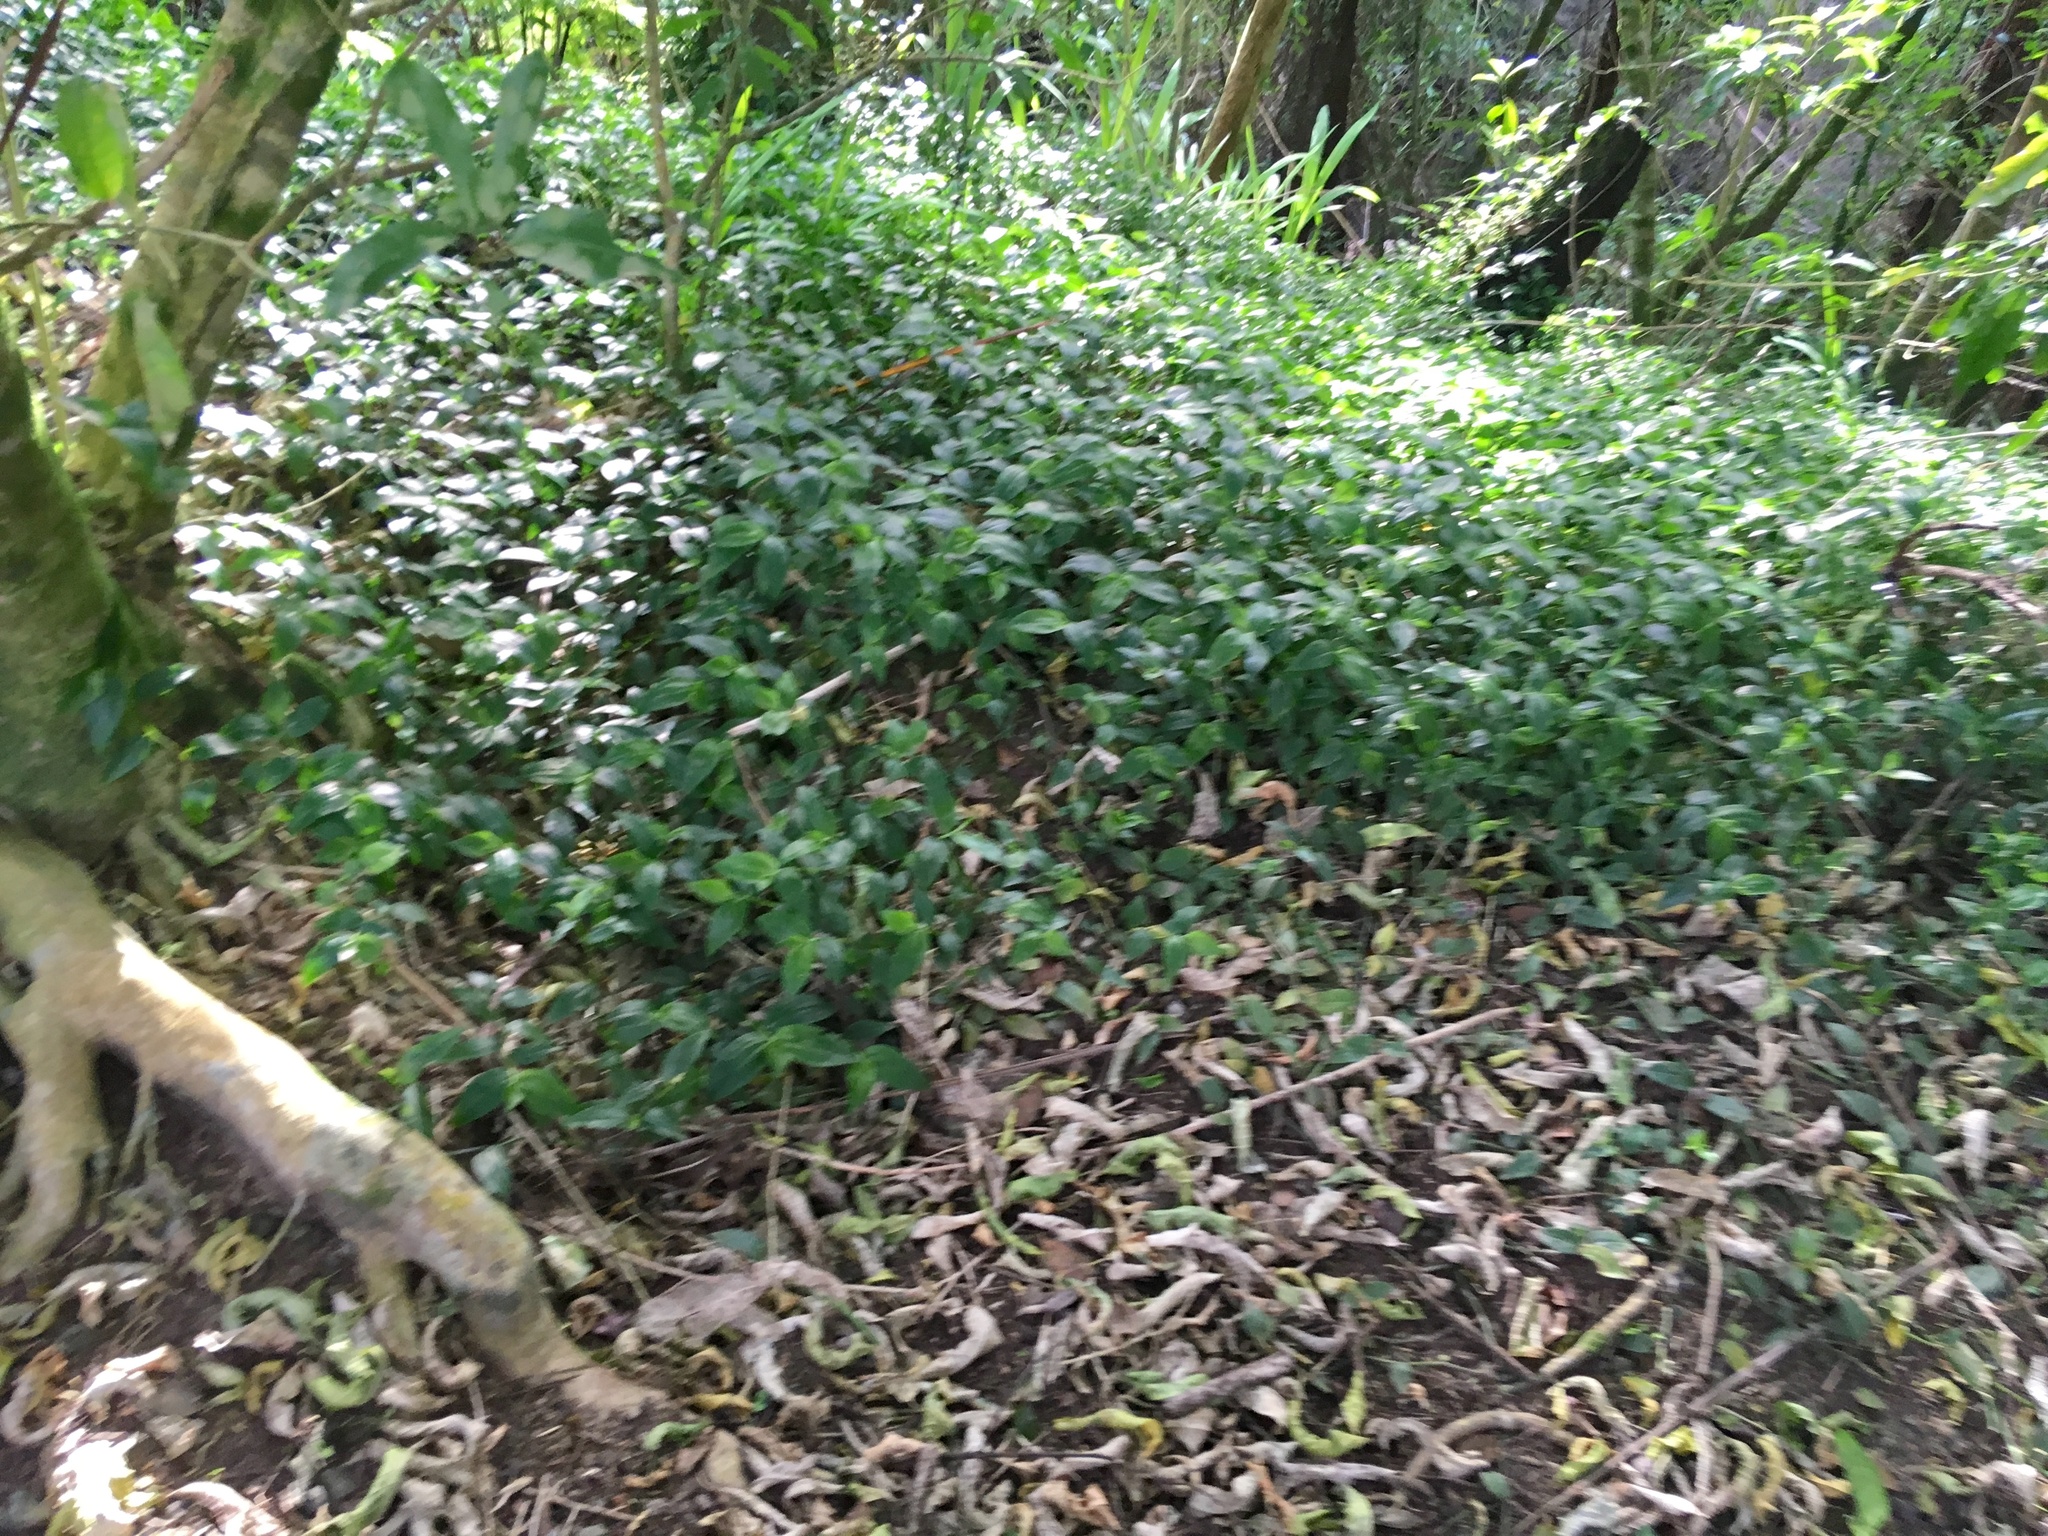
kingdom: Plantae
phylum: Tracheophyta
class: Liliopsida
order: Commelinales
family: Commelinaceae
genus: Tradescantia
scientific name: Tradescantia fluminensis
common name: Wandering-jew
